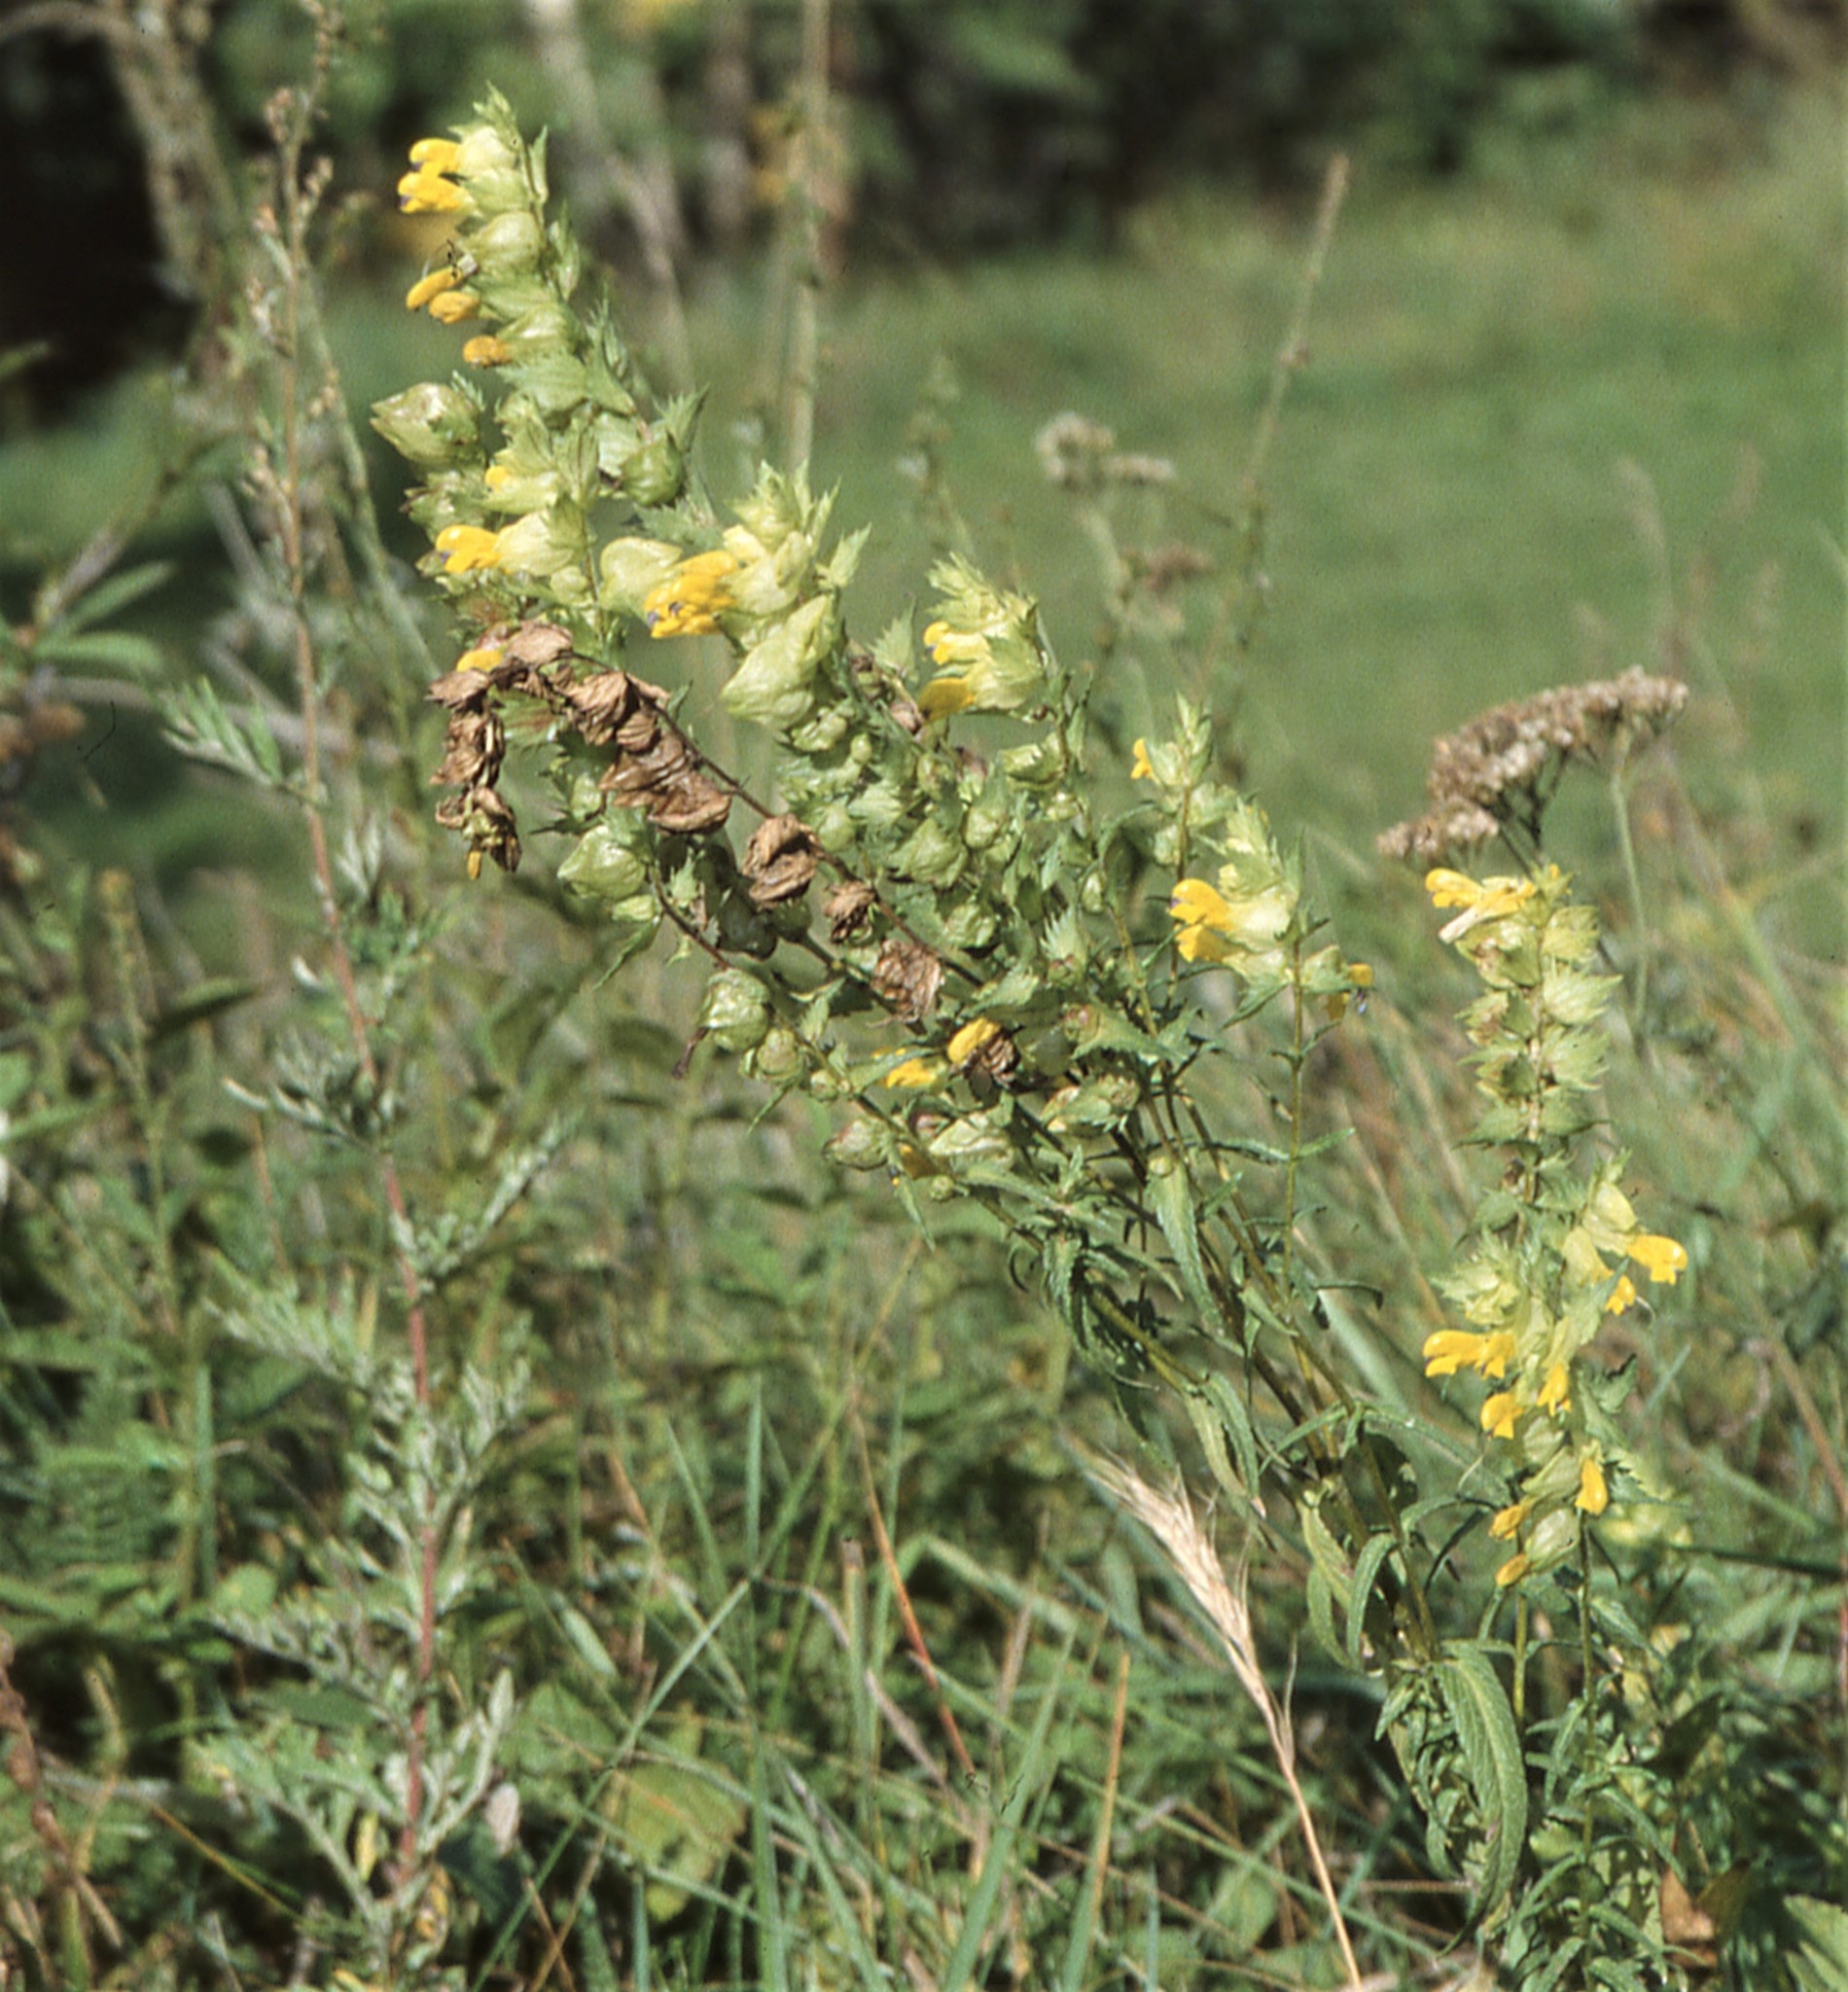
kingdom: Plantae
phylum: Tracheophyta
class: Magnoliopsida
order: Lamiales
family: Orobanchaceae
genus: Rhinanthus
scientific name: Rhinanthus serotinus
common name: Late-flowering yellow rattle
